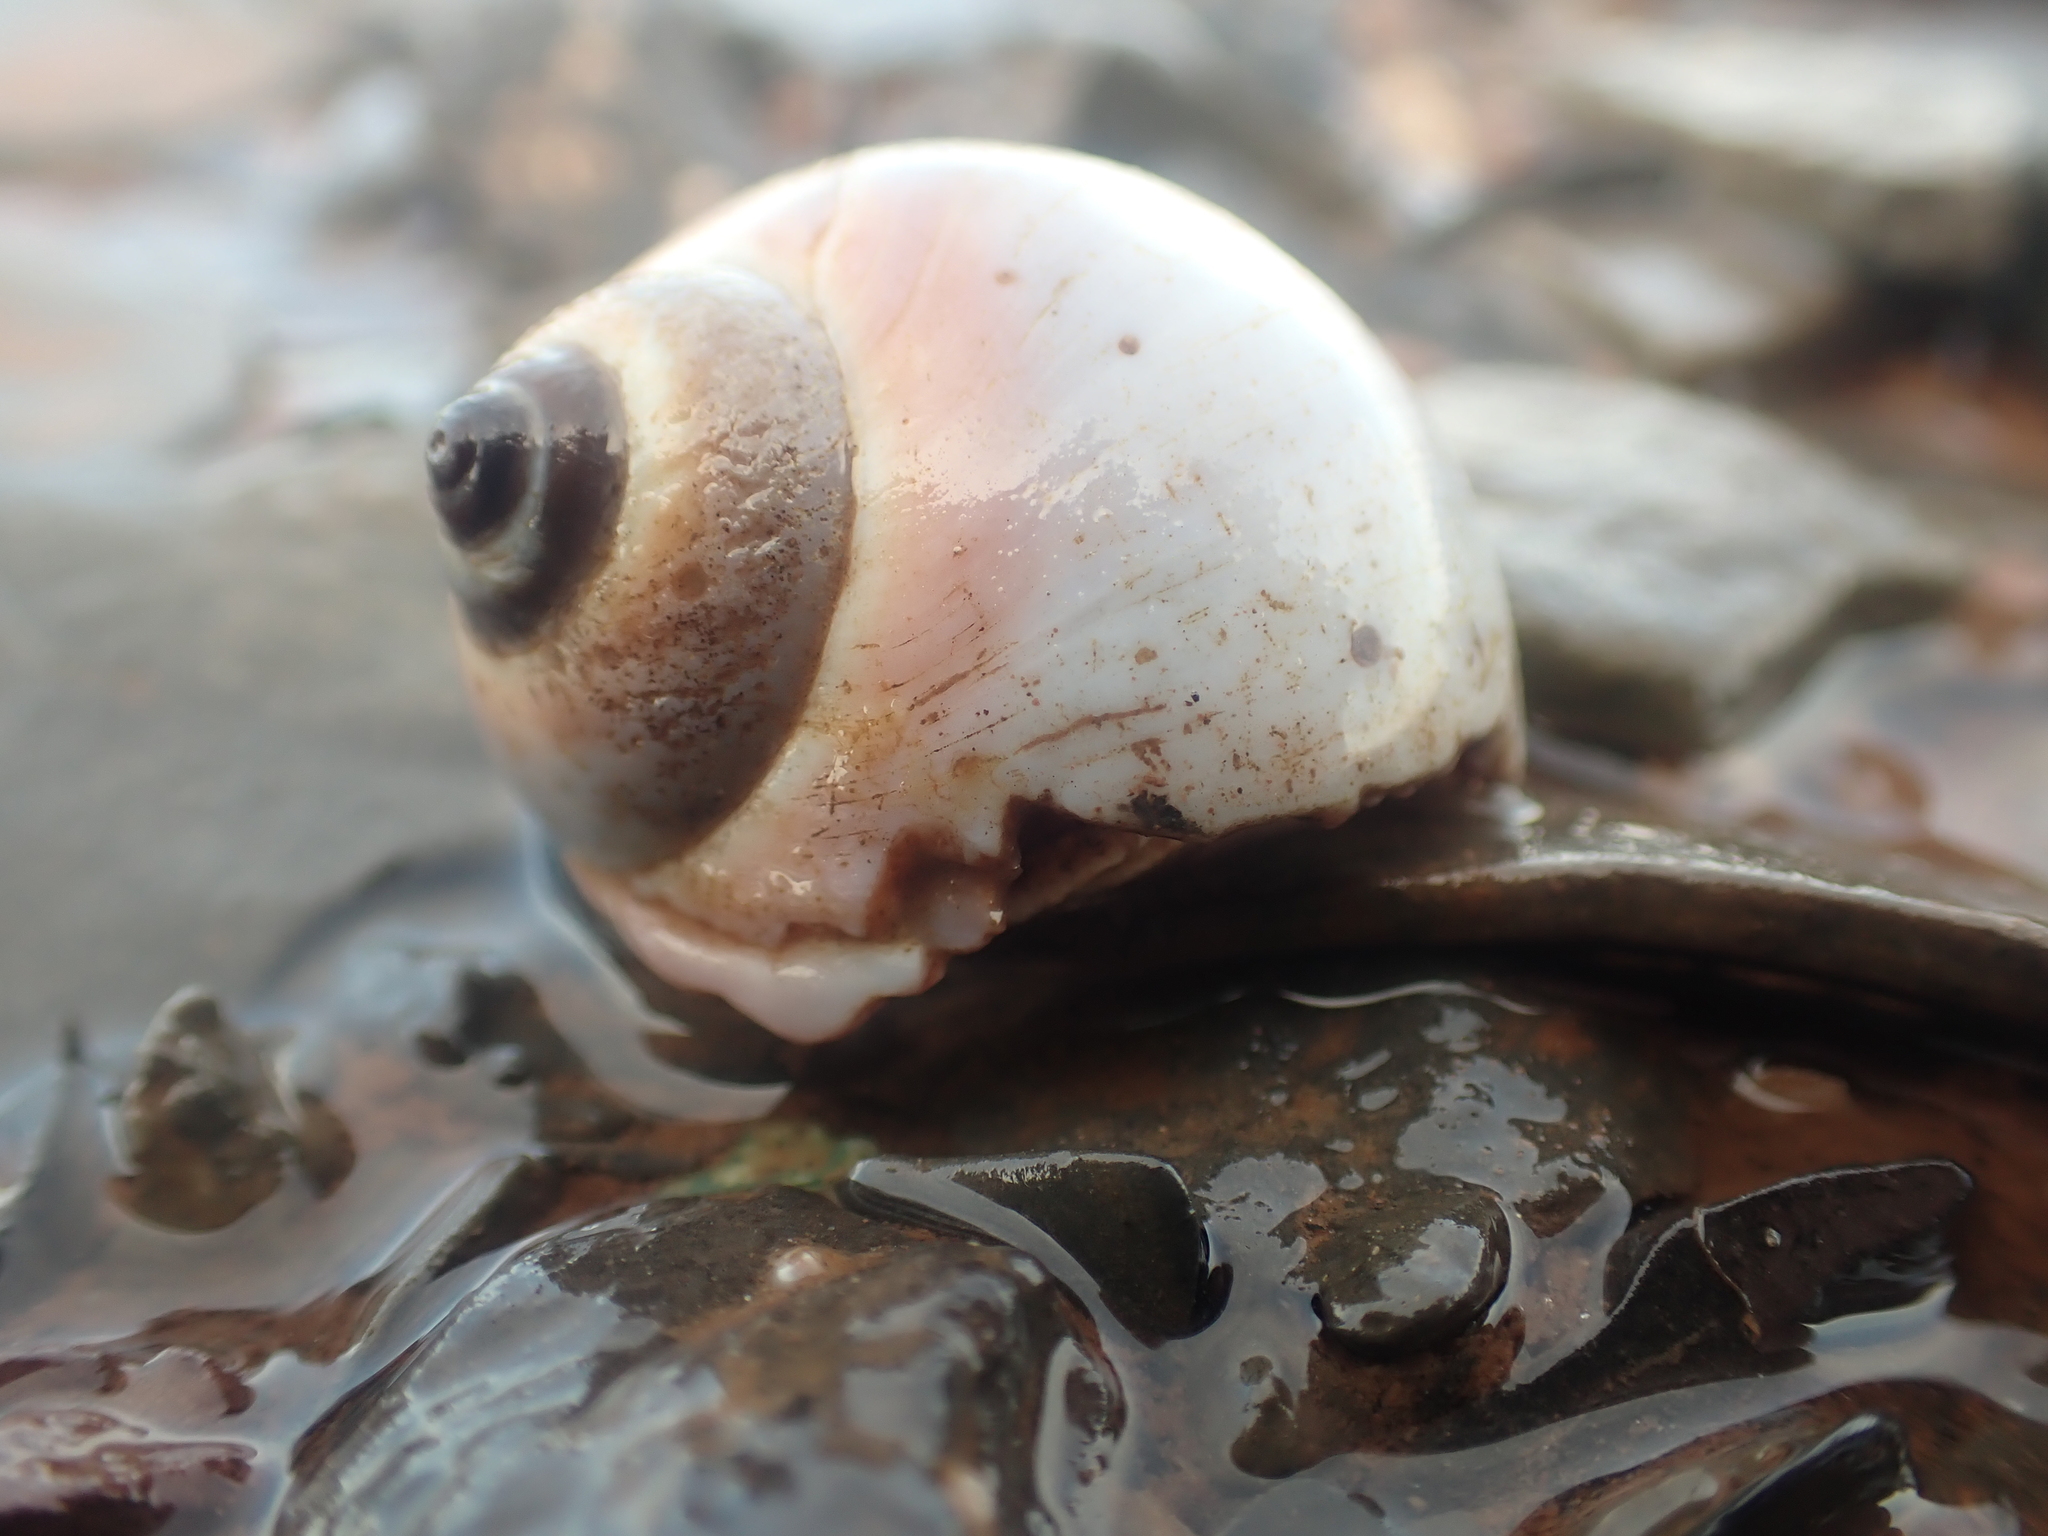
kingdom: Animalia
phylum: Mollusca
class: Gastropoda
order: Littorinimorpha
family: Naticidae
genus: Euspira
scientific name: Euspira heros
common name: Common northern moonsnail
